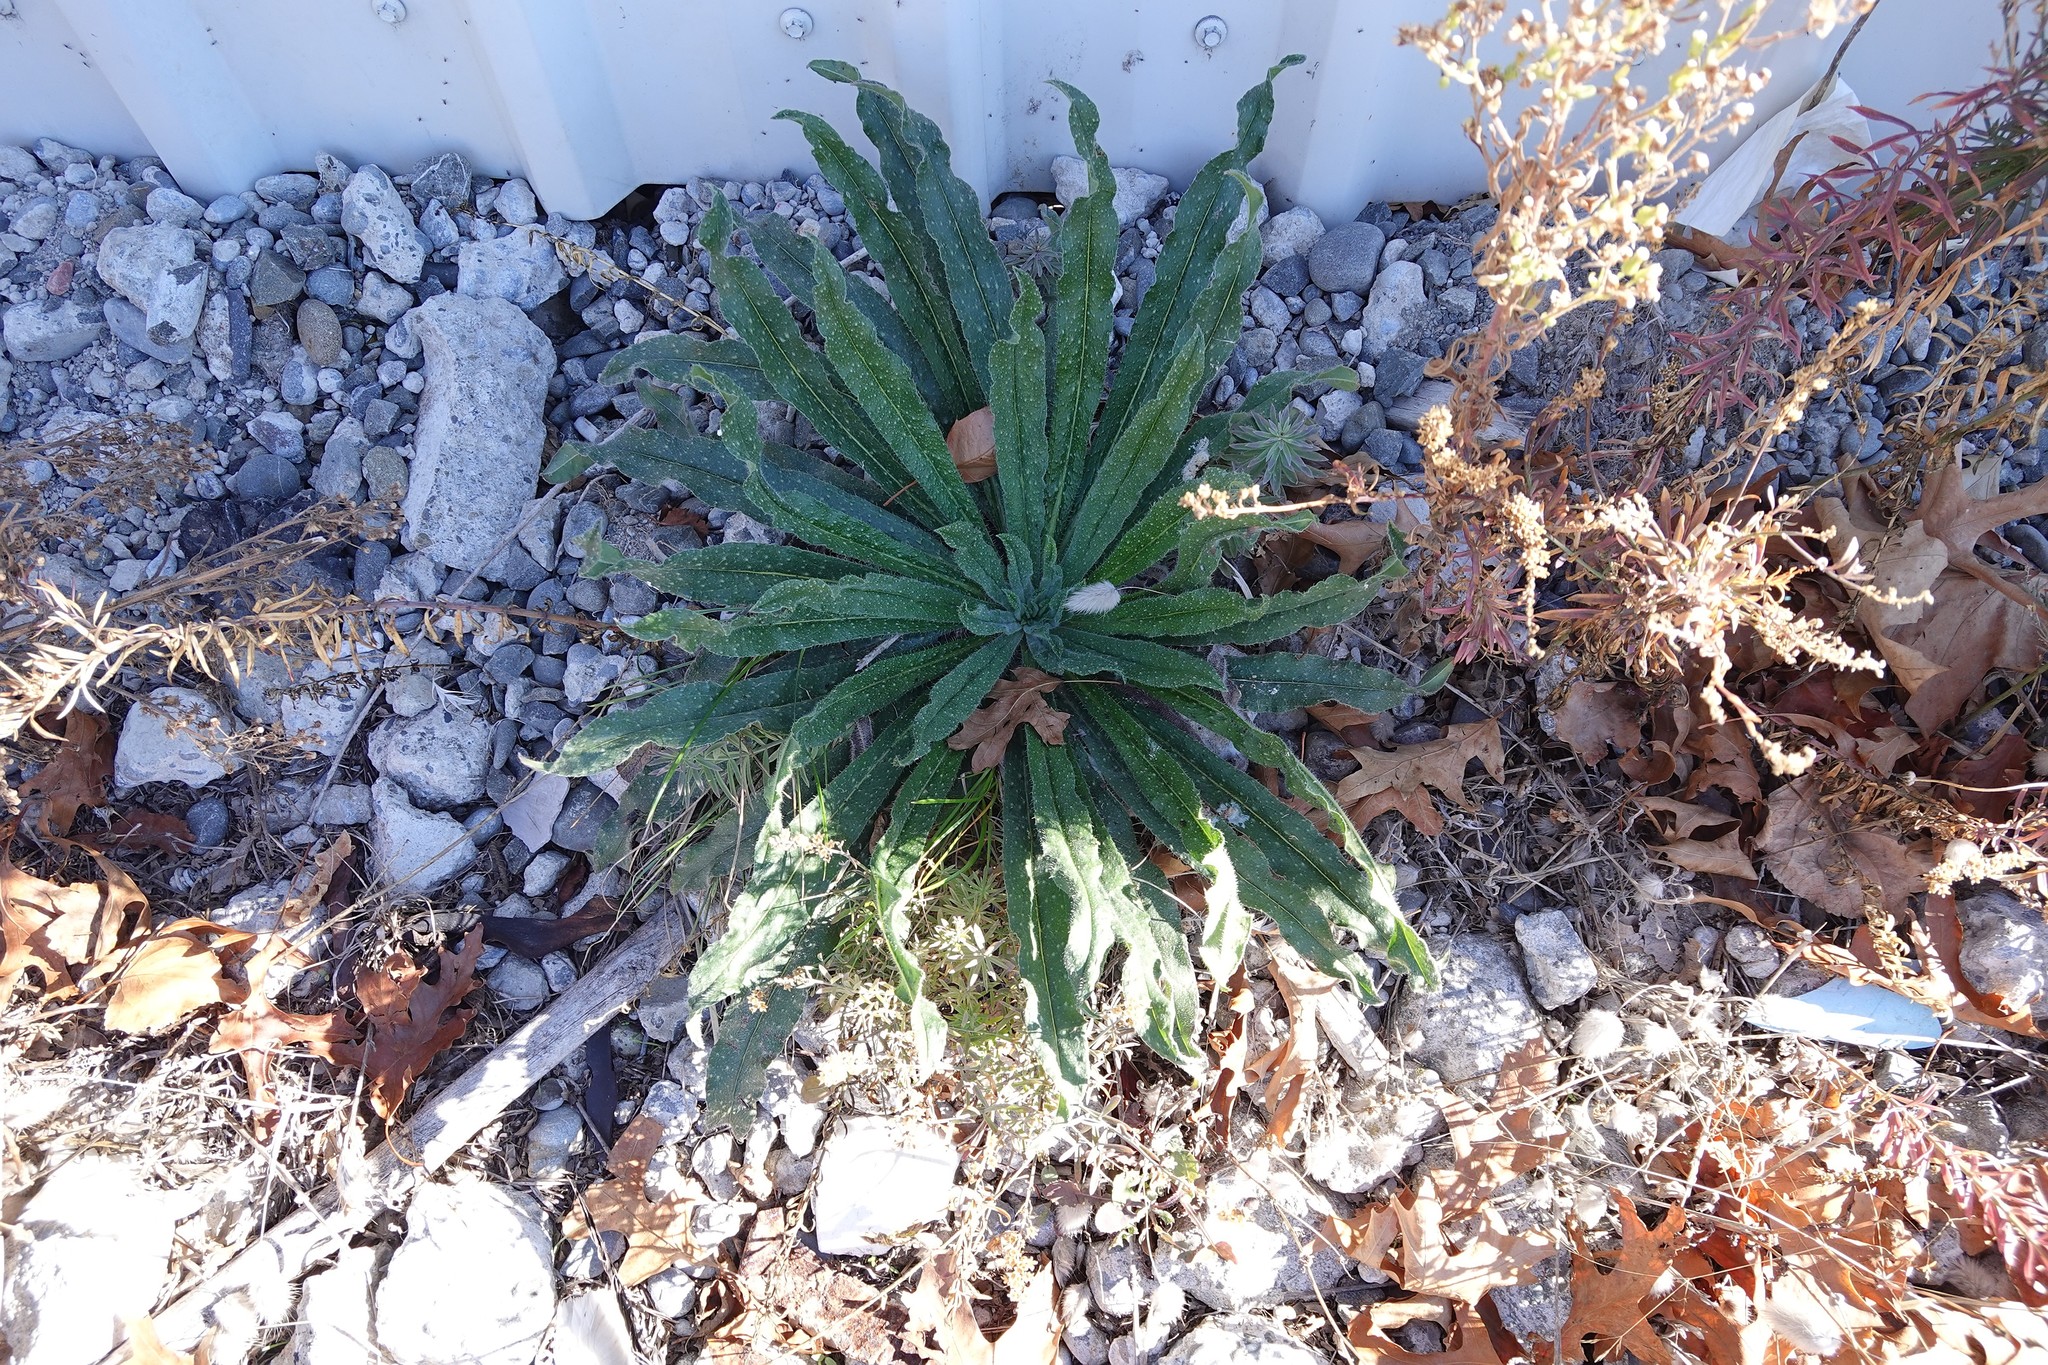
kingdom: Plantae
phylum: Tracheophyta
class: Magnoliopsida
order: Boraginales
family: Boraginaceae
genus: Echium
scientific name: Echium vulgare
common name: Common viper's bugloss
